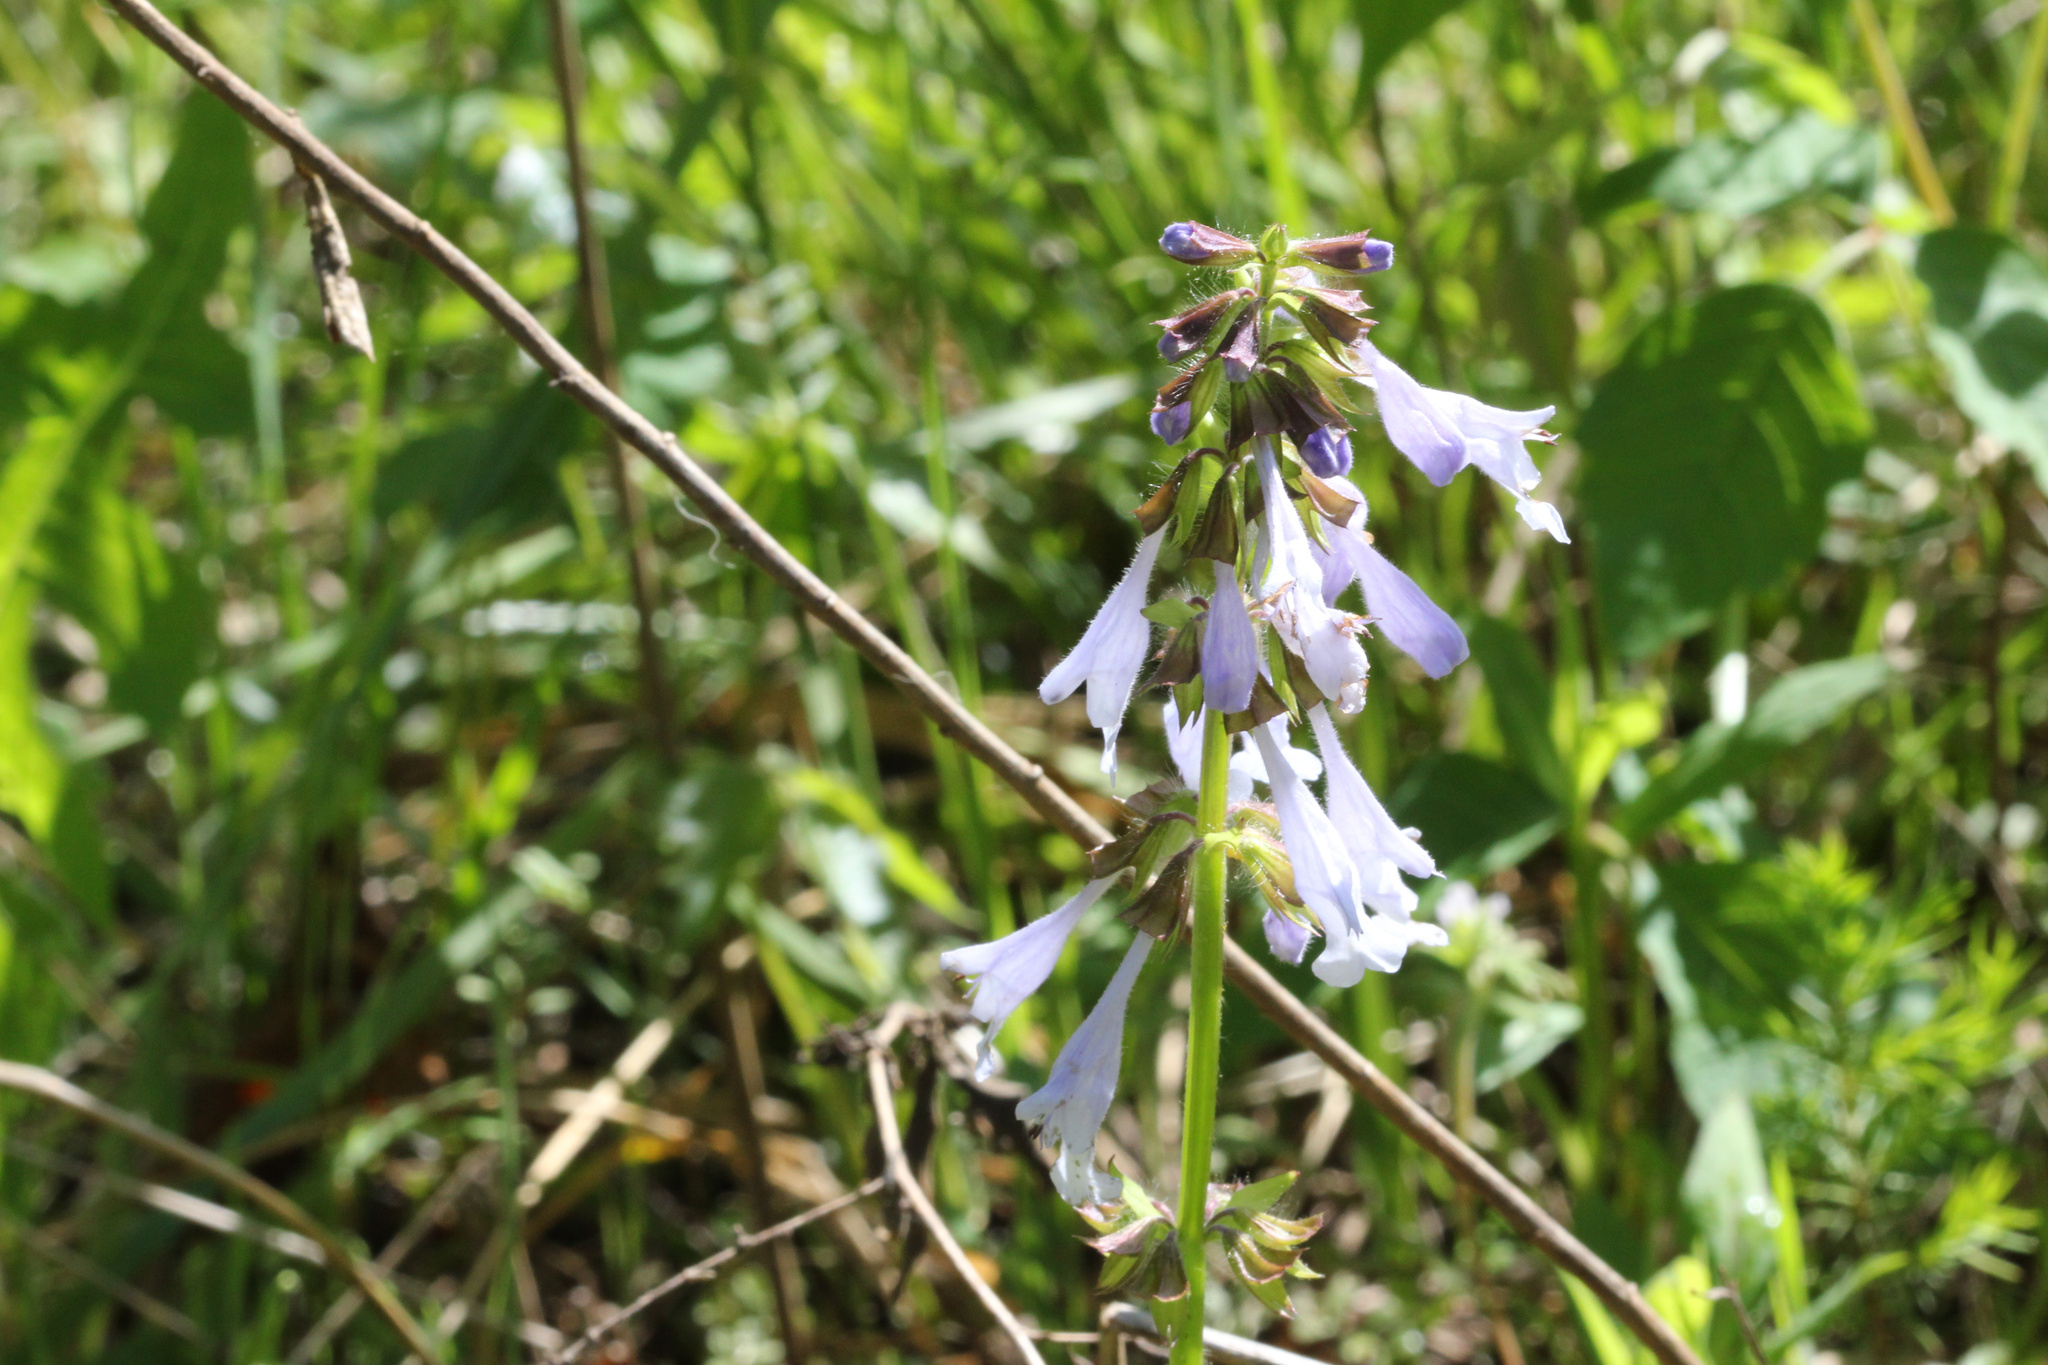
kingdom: Plantae
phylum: Tracheophyta
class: Magnoliopsida
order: Lamiales
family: Lamiaceae
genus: Salvia
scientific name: Salvia lyrata
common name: Cancerweed
